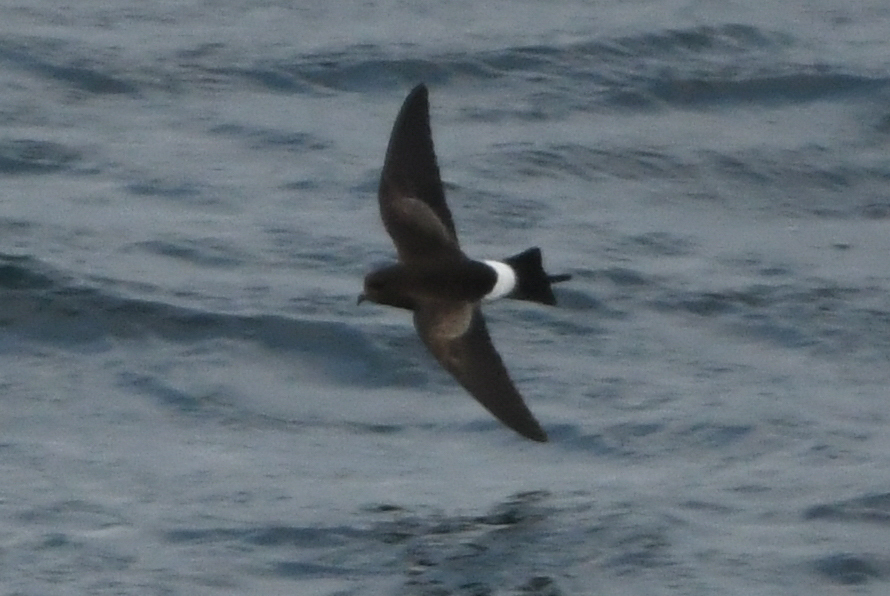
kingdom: Animalia
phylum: Chordata
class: Aves
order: Procellariiformes
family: Hydrobatidae
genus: Oceanites
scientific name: Oceanites oceanicus
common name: Wilson's storm petrel
